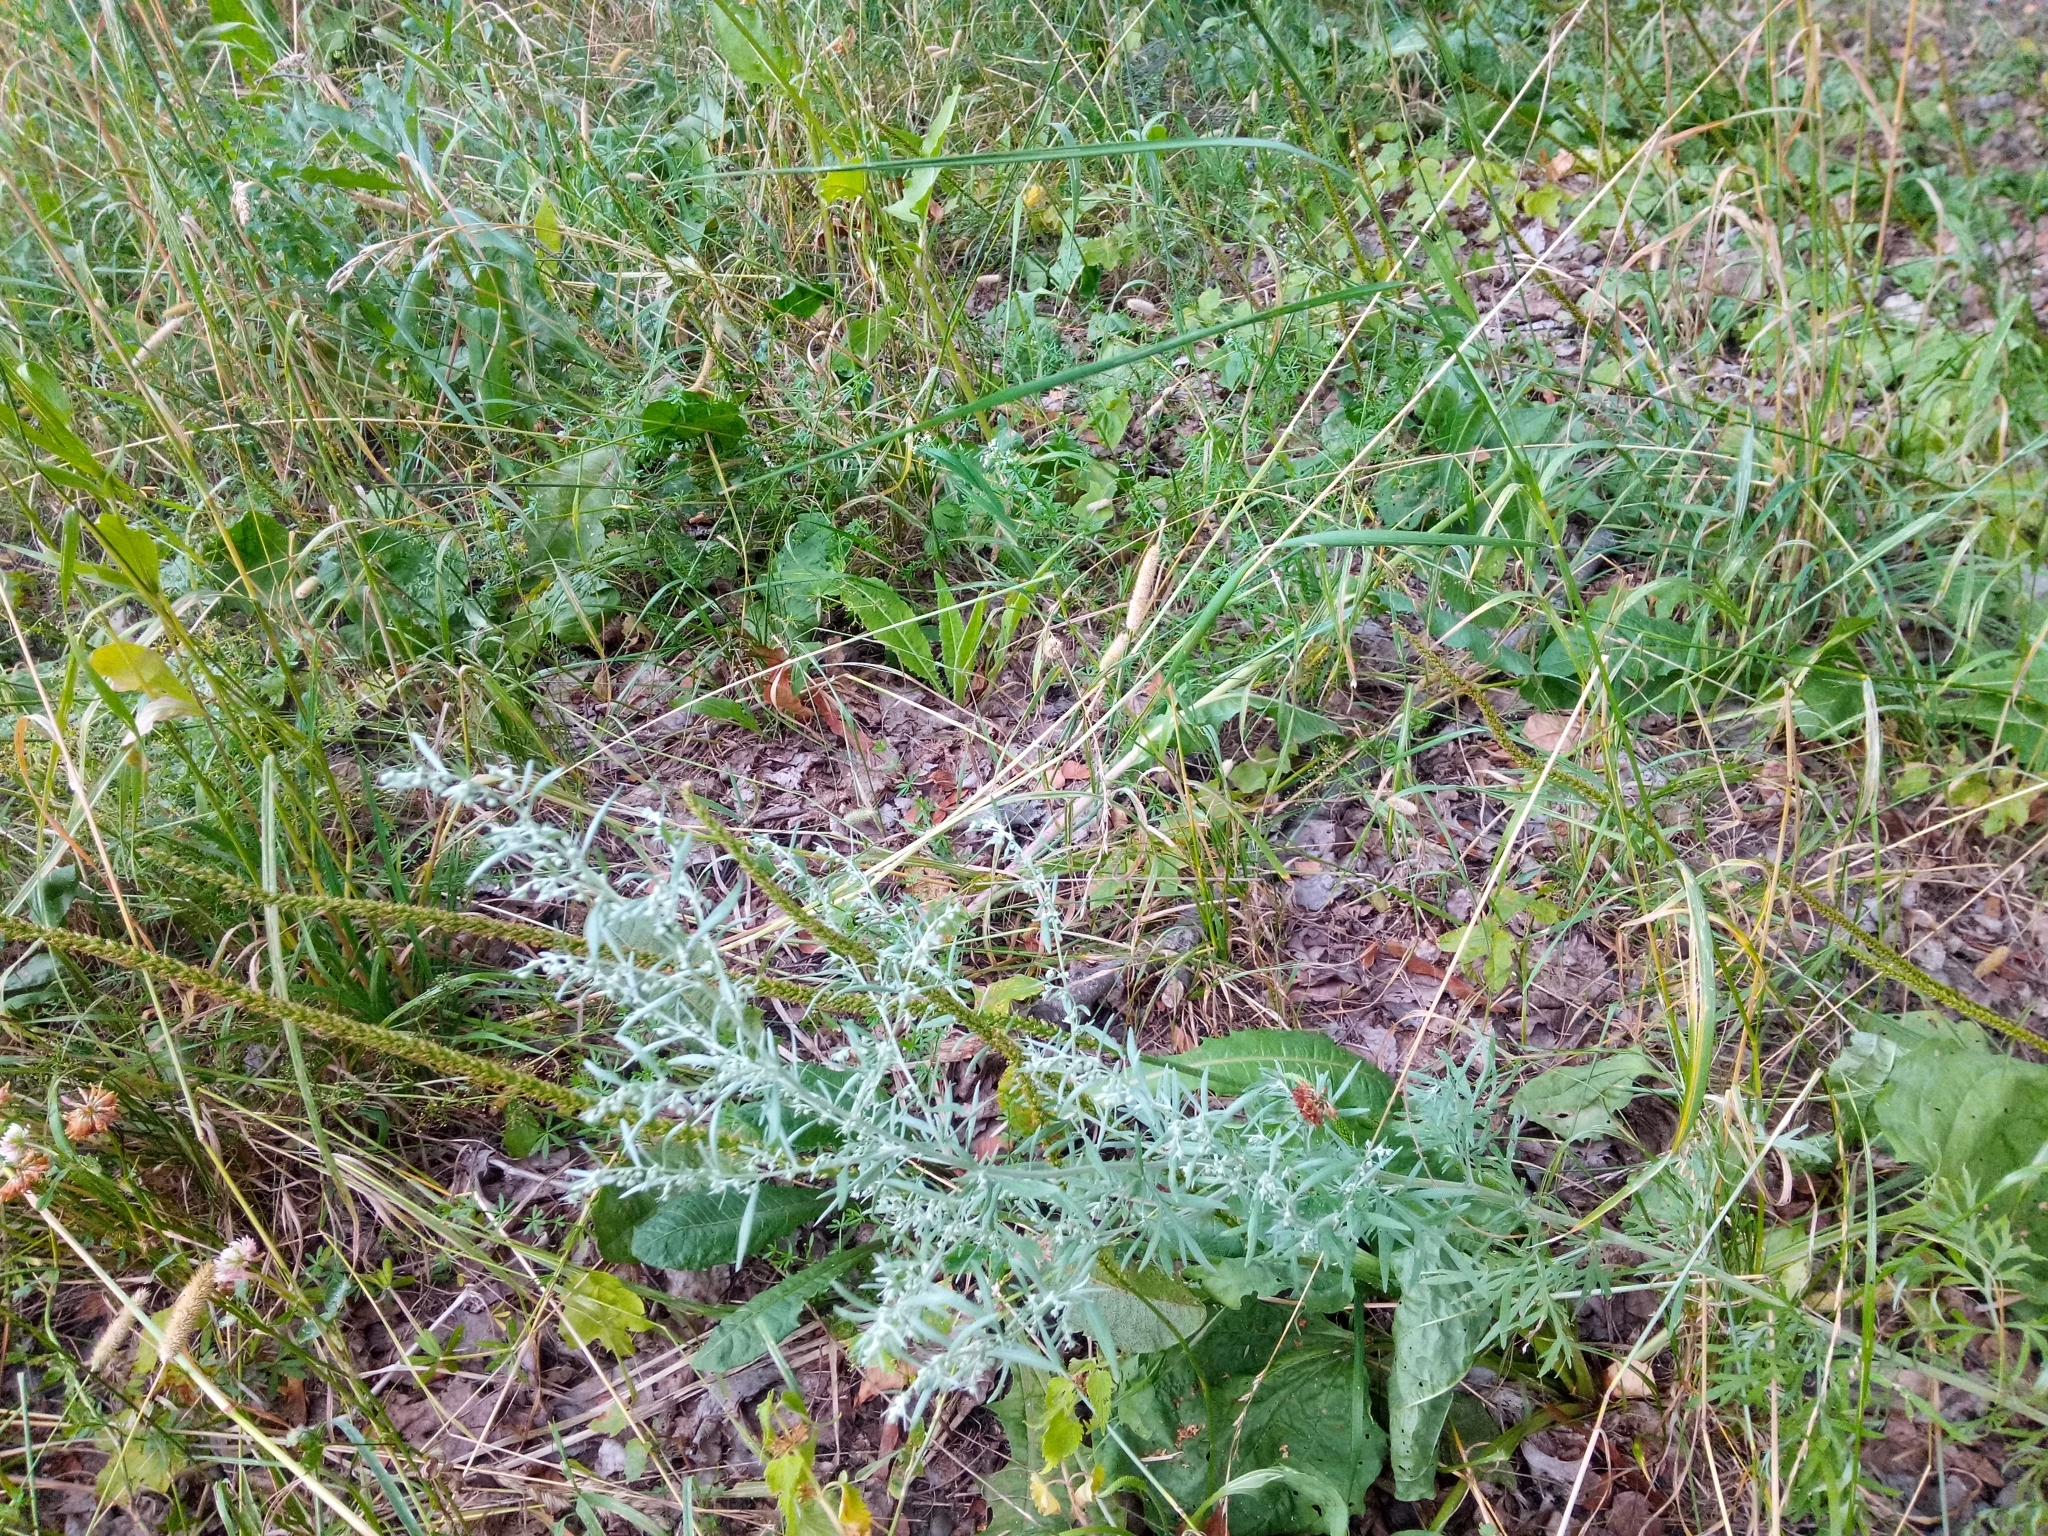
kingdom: Plantae
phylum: Tracheophyta
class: Magnoliopsida
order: Asterales
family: Asteraceae
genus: Artemisia
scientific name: Artemisia absinthium
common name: Wormwood
